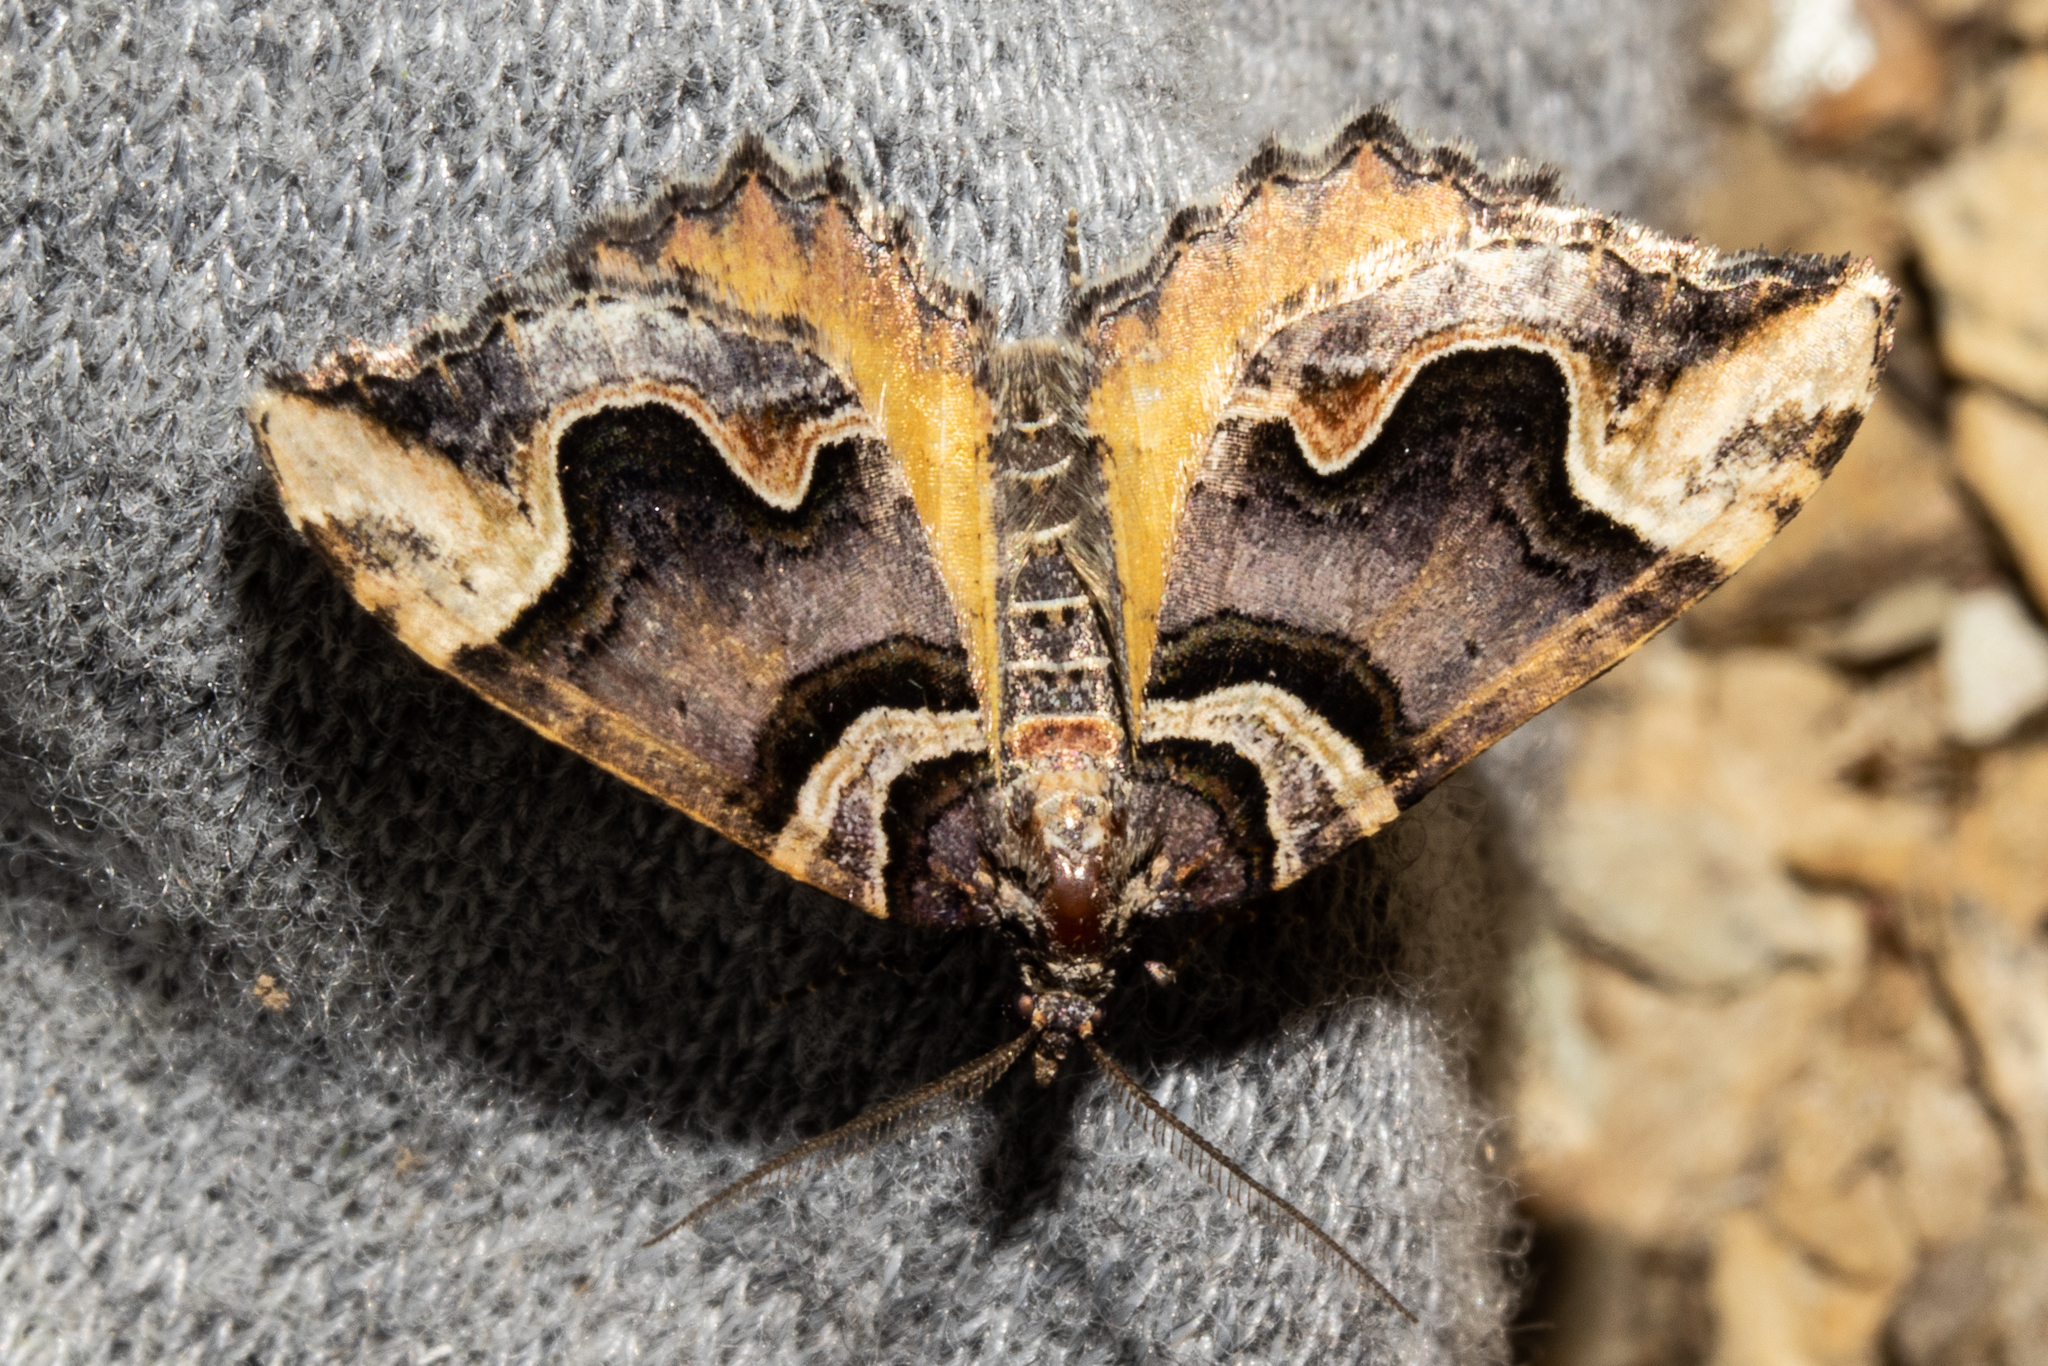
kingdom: Animalia
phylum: Arthropoda
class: Insecta
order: Lepidoptera
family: Geometridae
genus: Asaphodes
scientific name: Asaphodes chlamydota
